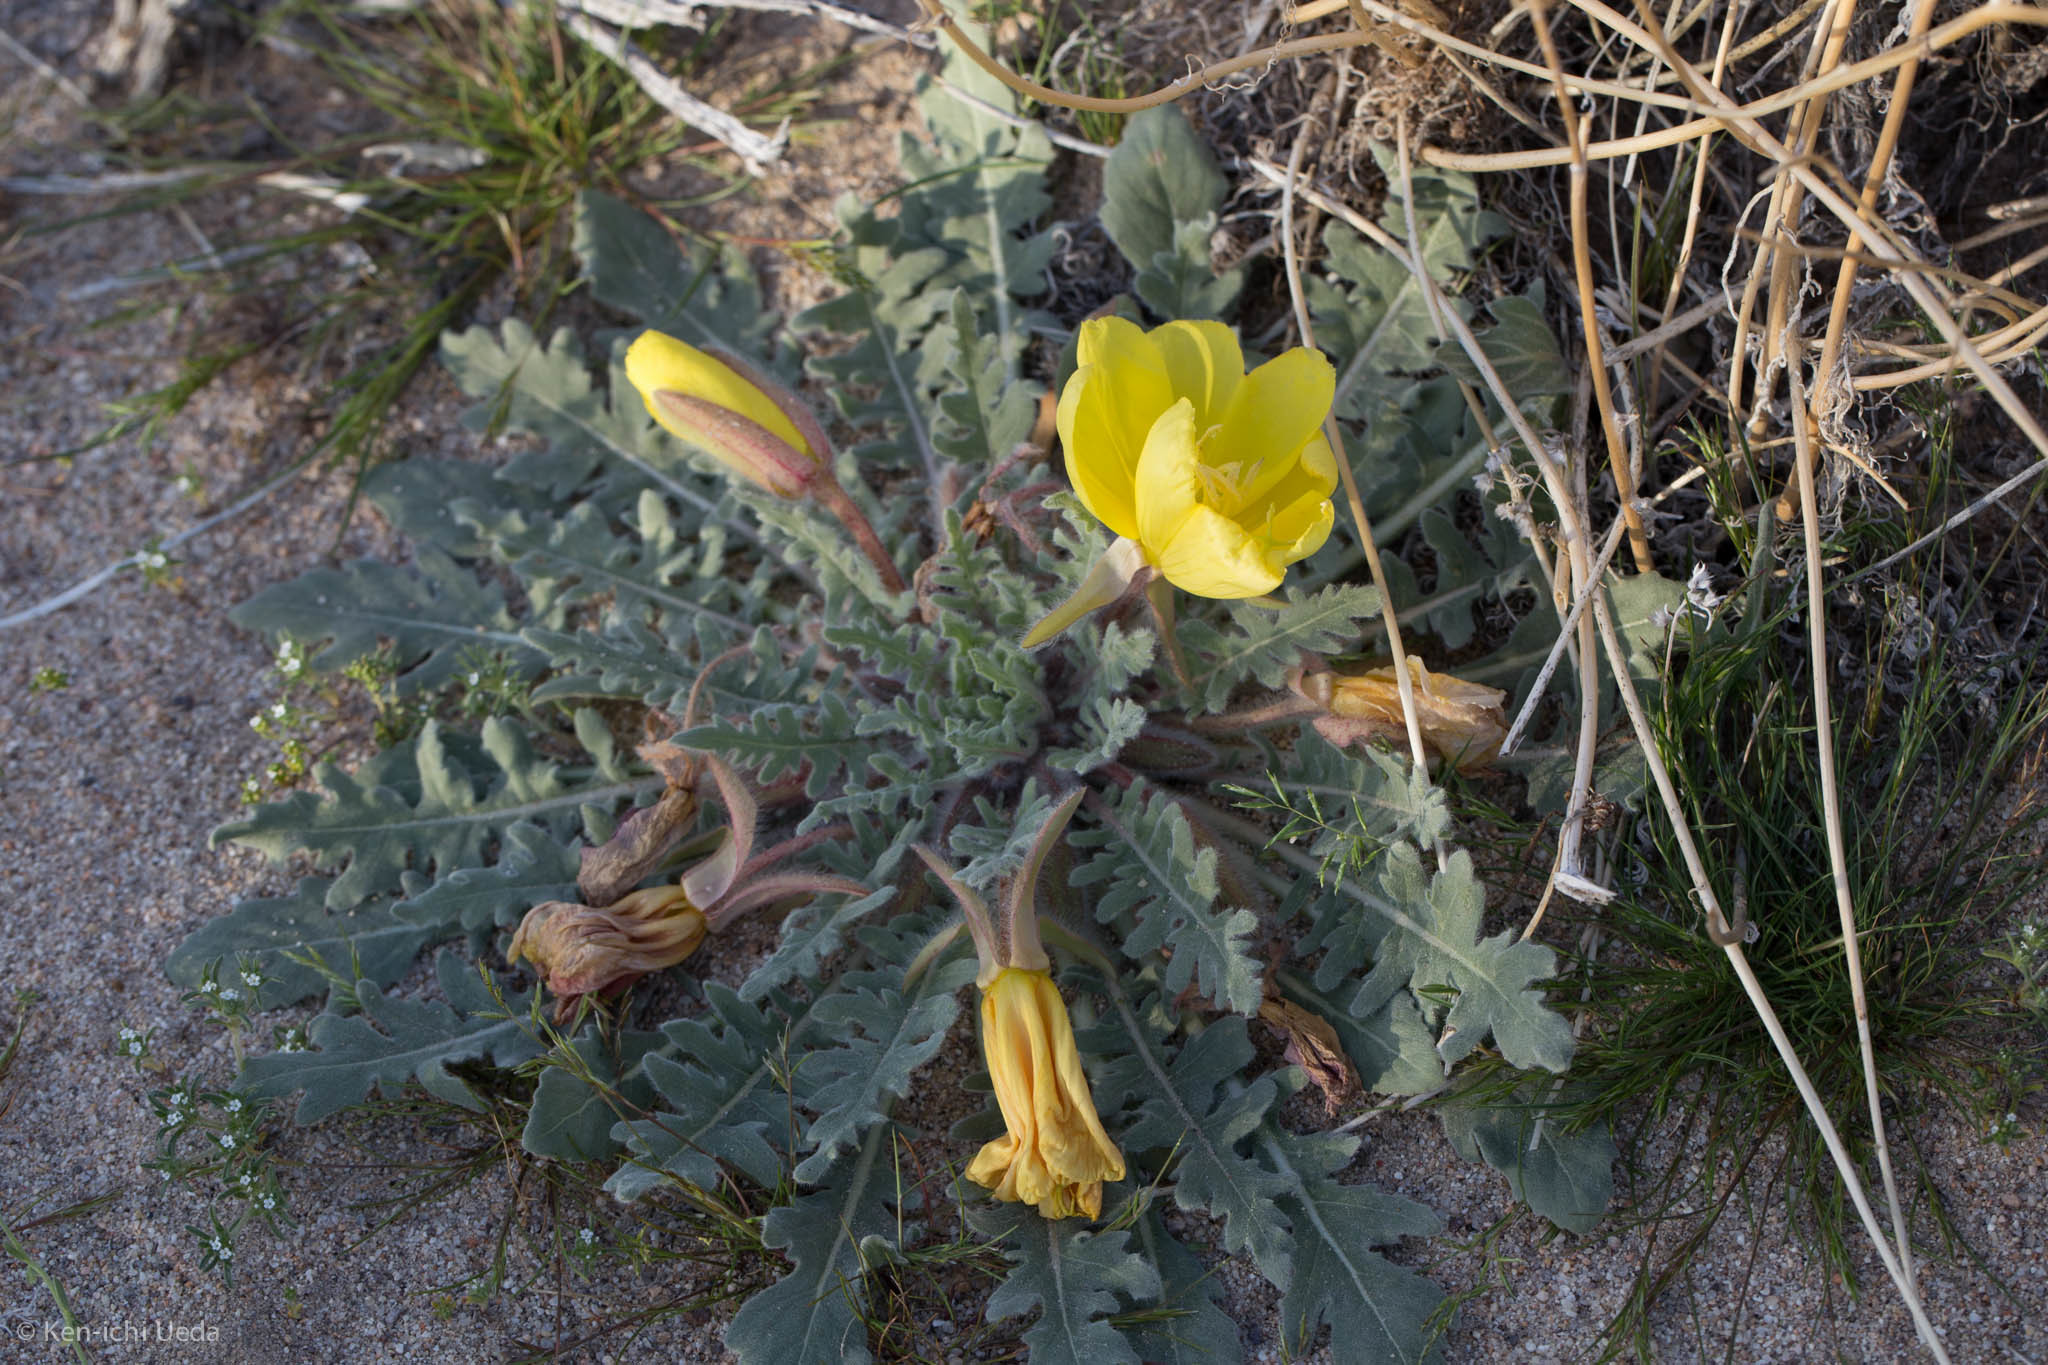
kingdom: Plantae
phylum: Tracheophyta
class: Magnoliopsida
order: Myrtales
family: Onagraceae
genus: Oenothera
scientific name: Oenothera primiveris
